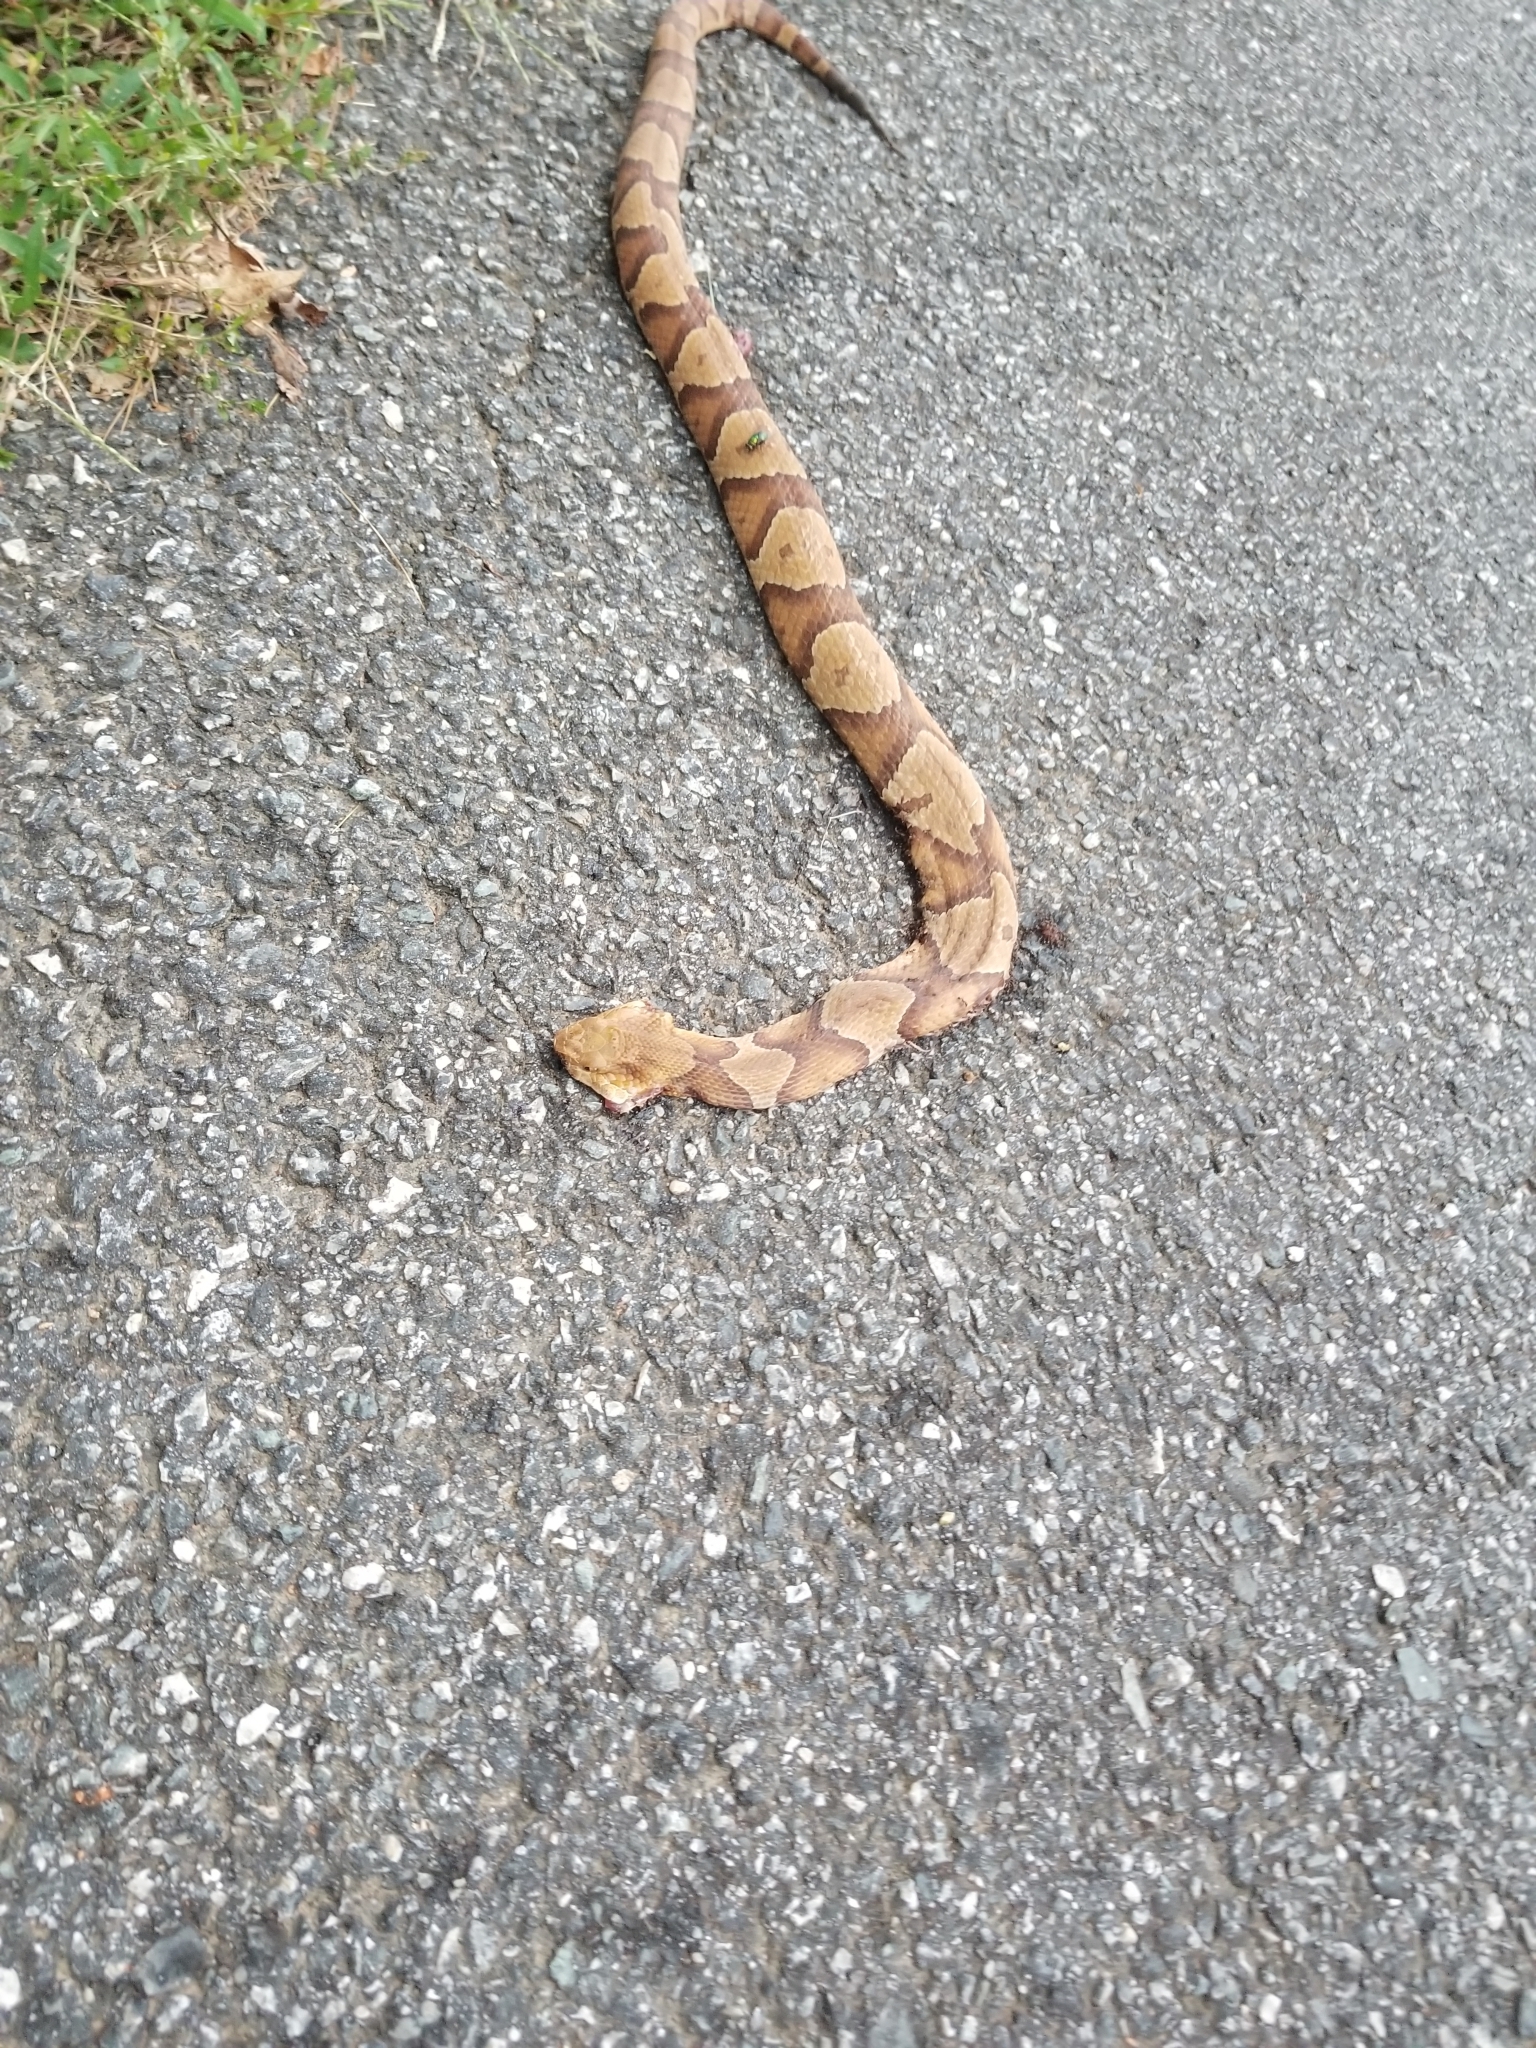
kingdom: Animalia
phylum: Chordata
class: Squamata
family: Viperidae
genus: Agkistrodon
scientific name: Agkistrodon contortrix
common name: Northern copperhead
